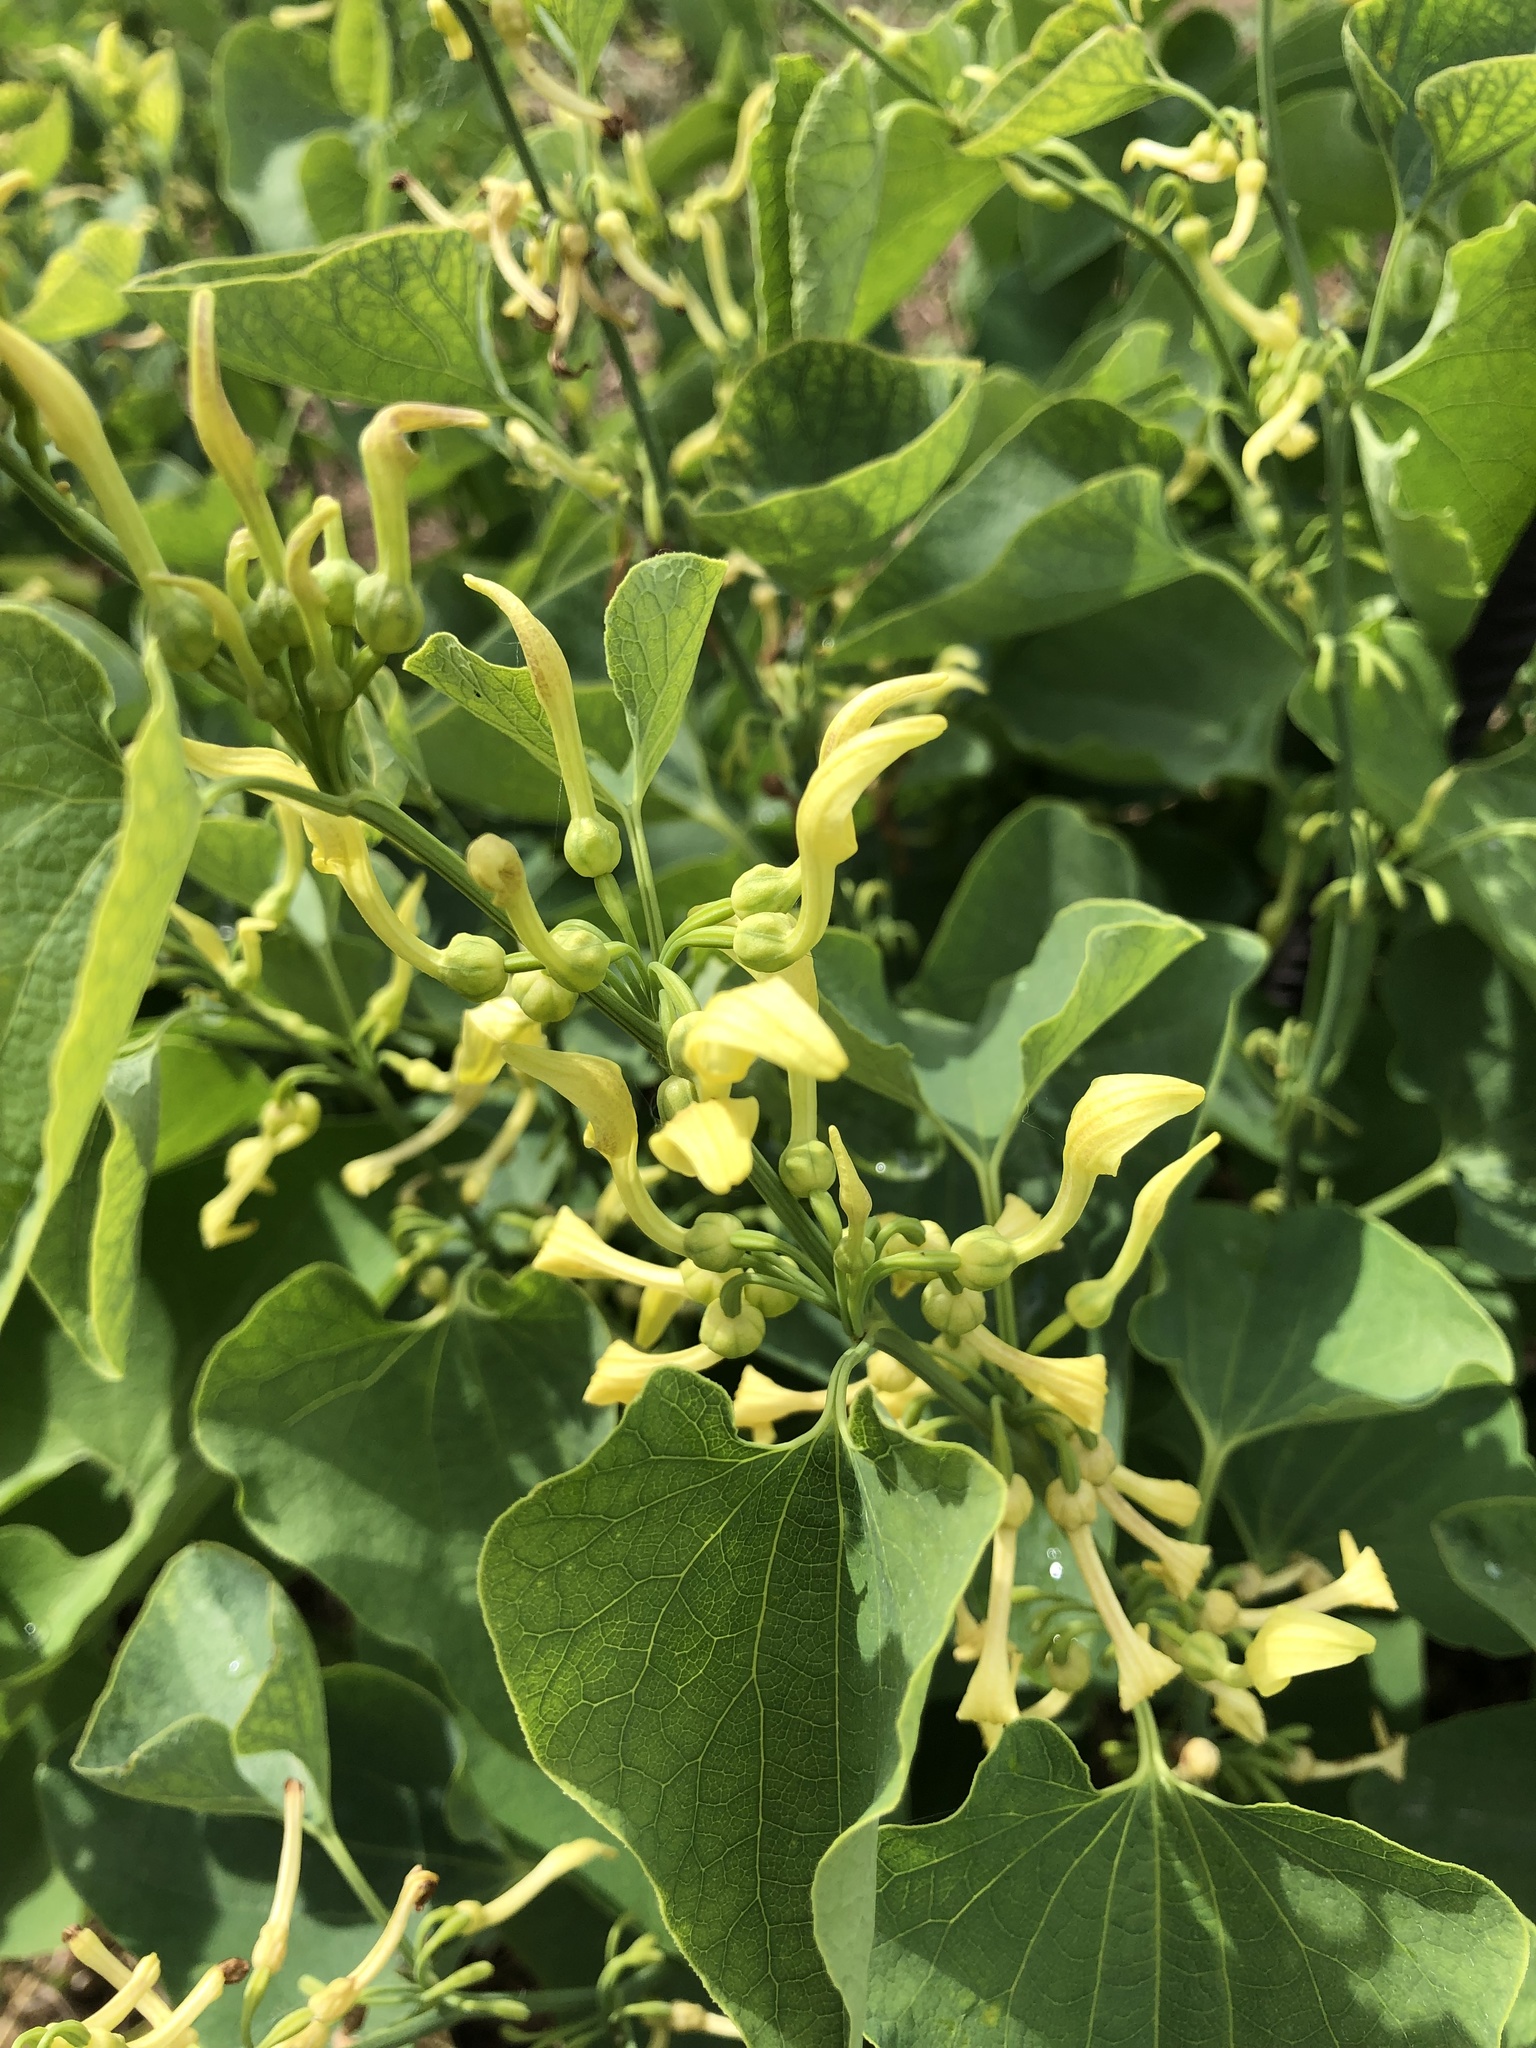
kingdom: Plantae
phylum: Tracheophyta
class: Magnoliopsida
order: Piperales
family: Aristolochiaceae
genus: Aristolochia
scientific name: Aristolochia clematitis
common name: Birthwort
